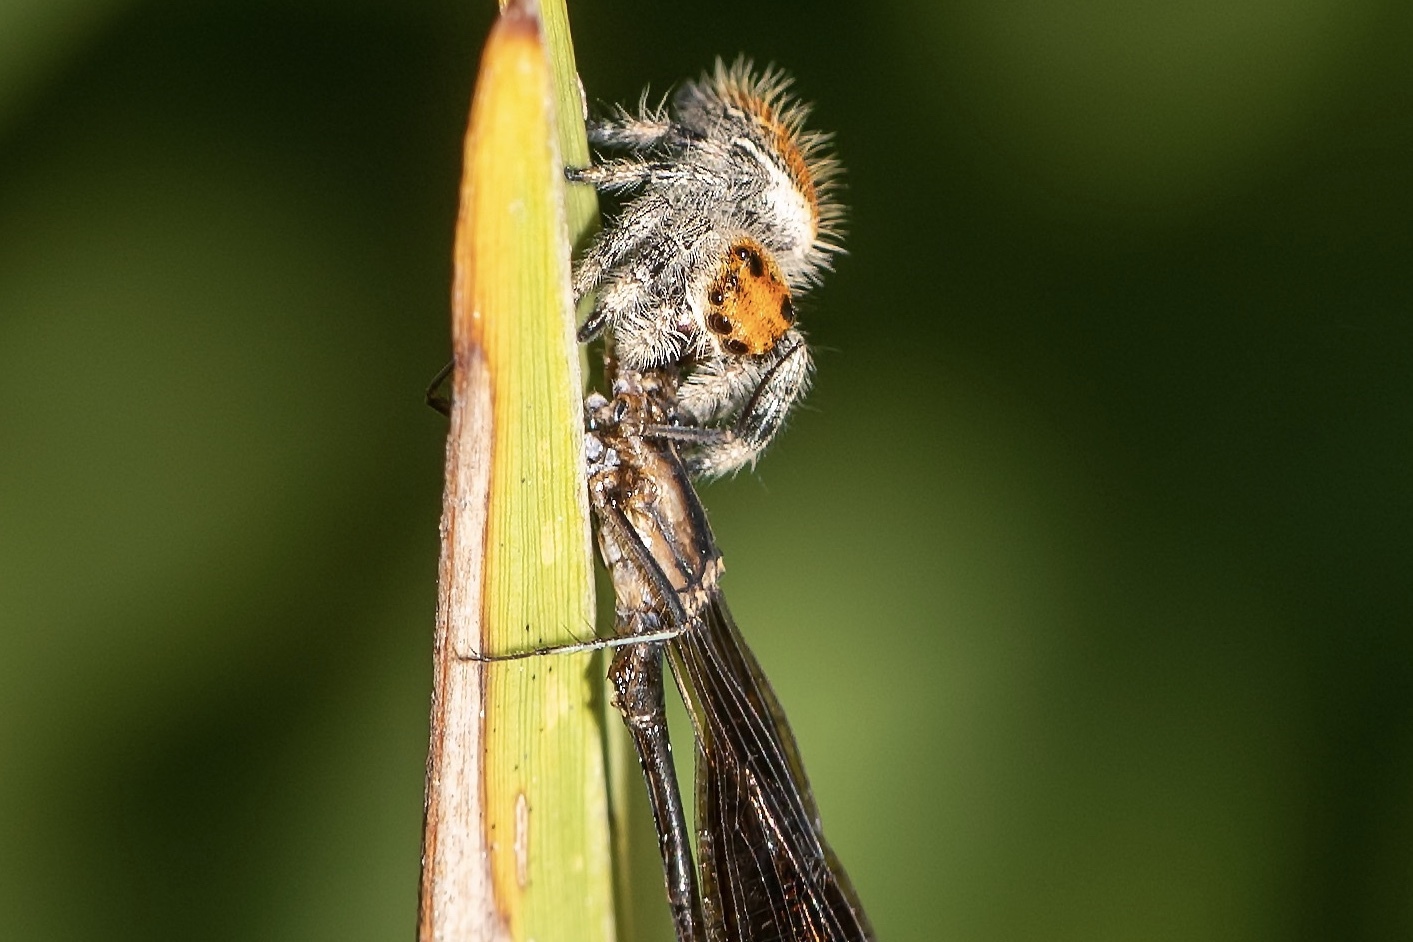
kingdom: Animalia
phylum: Arthropoda
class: Arachnida
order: Araneae
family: Salticidae
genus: Phidippus
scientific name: Phidippus regius
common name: Regal jumper
